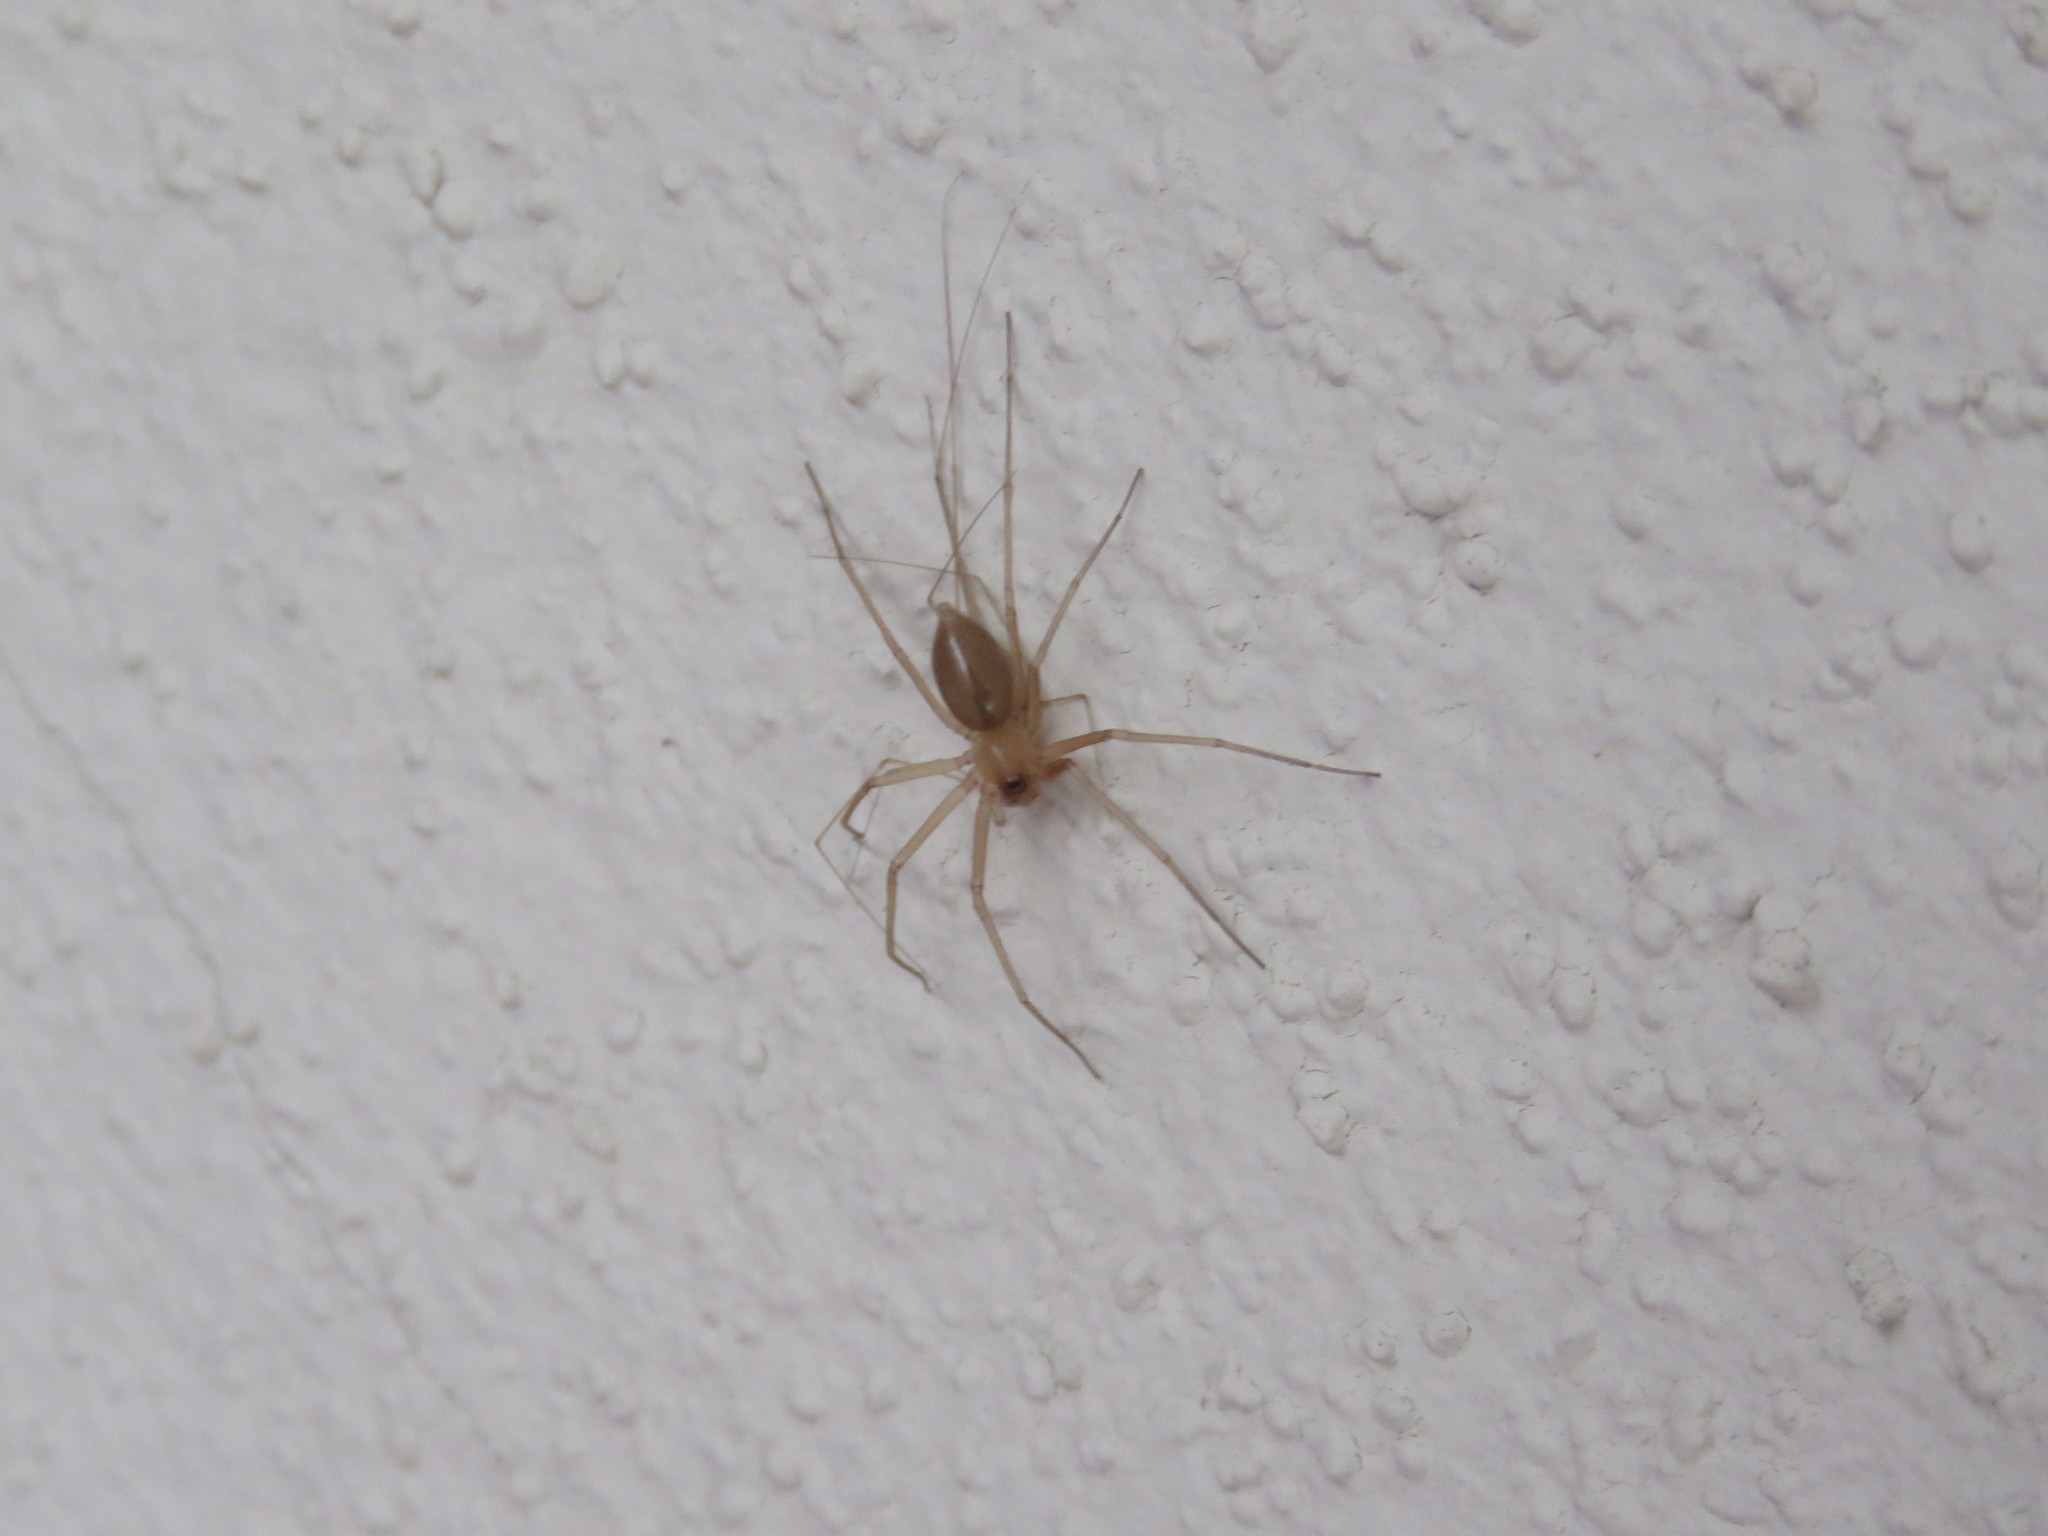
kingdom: Animalia
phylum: Arthropoda
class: Arachnida
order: Araneae
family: Cithaeronidae
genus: Cithaeron
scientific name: Cithaeron praedonius
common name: Synanthropic spider
